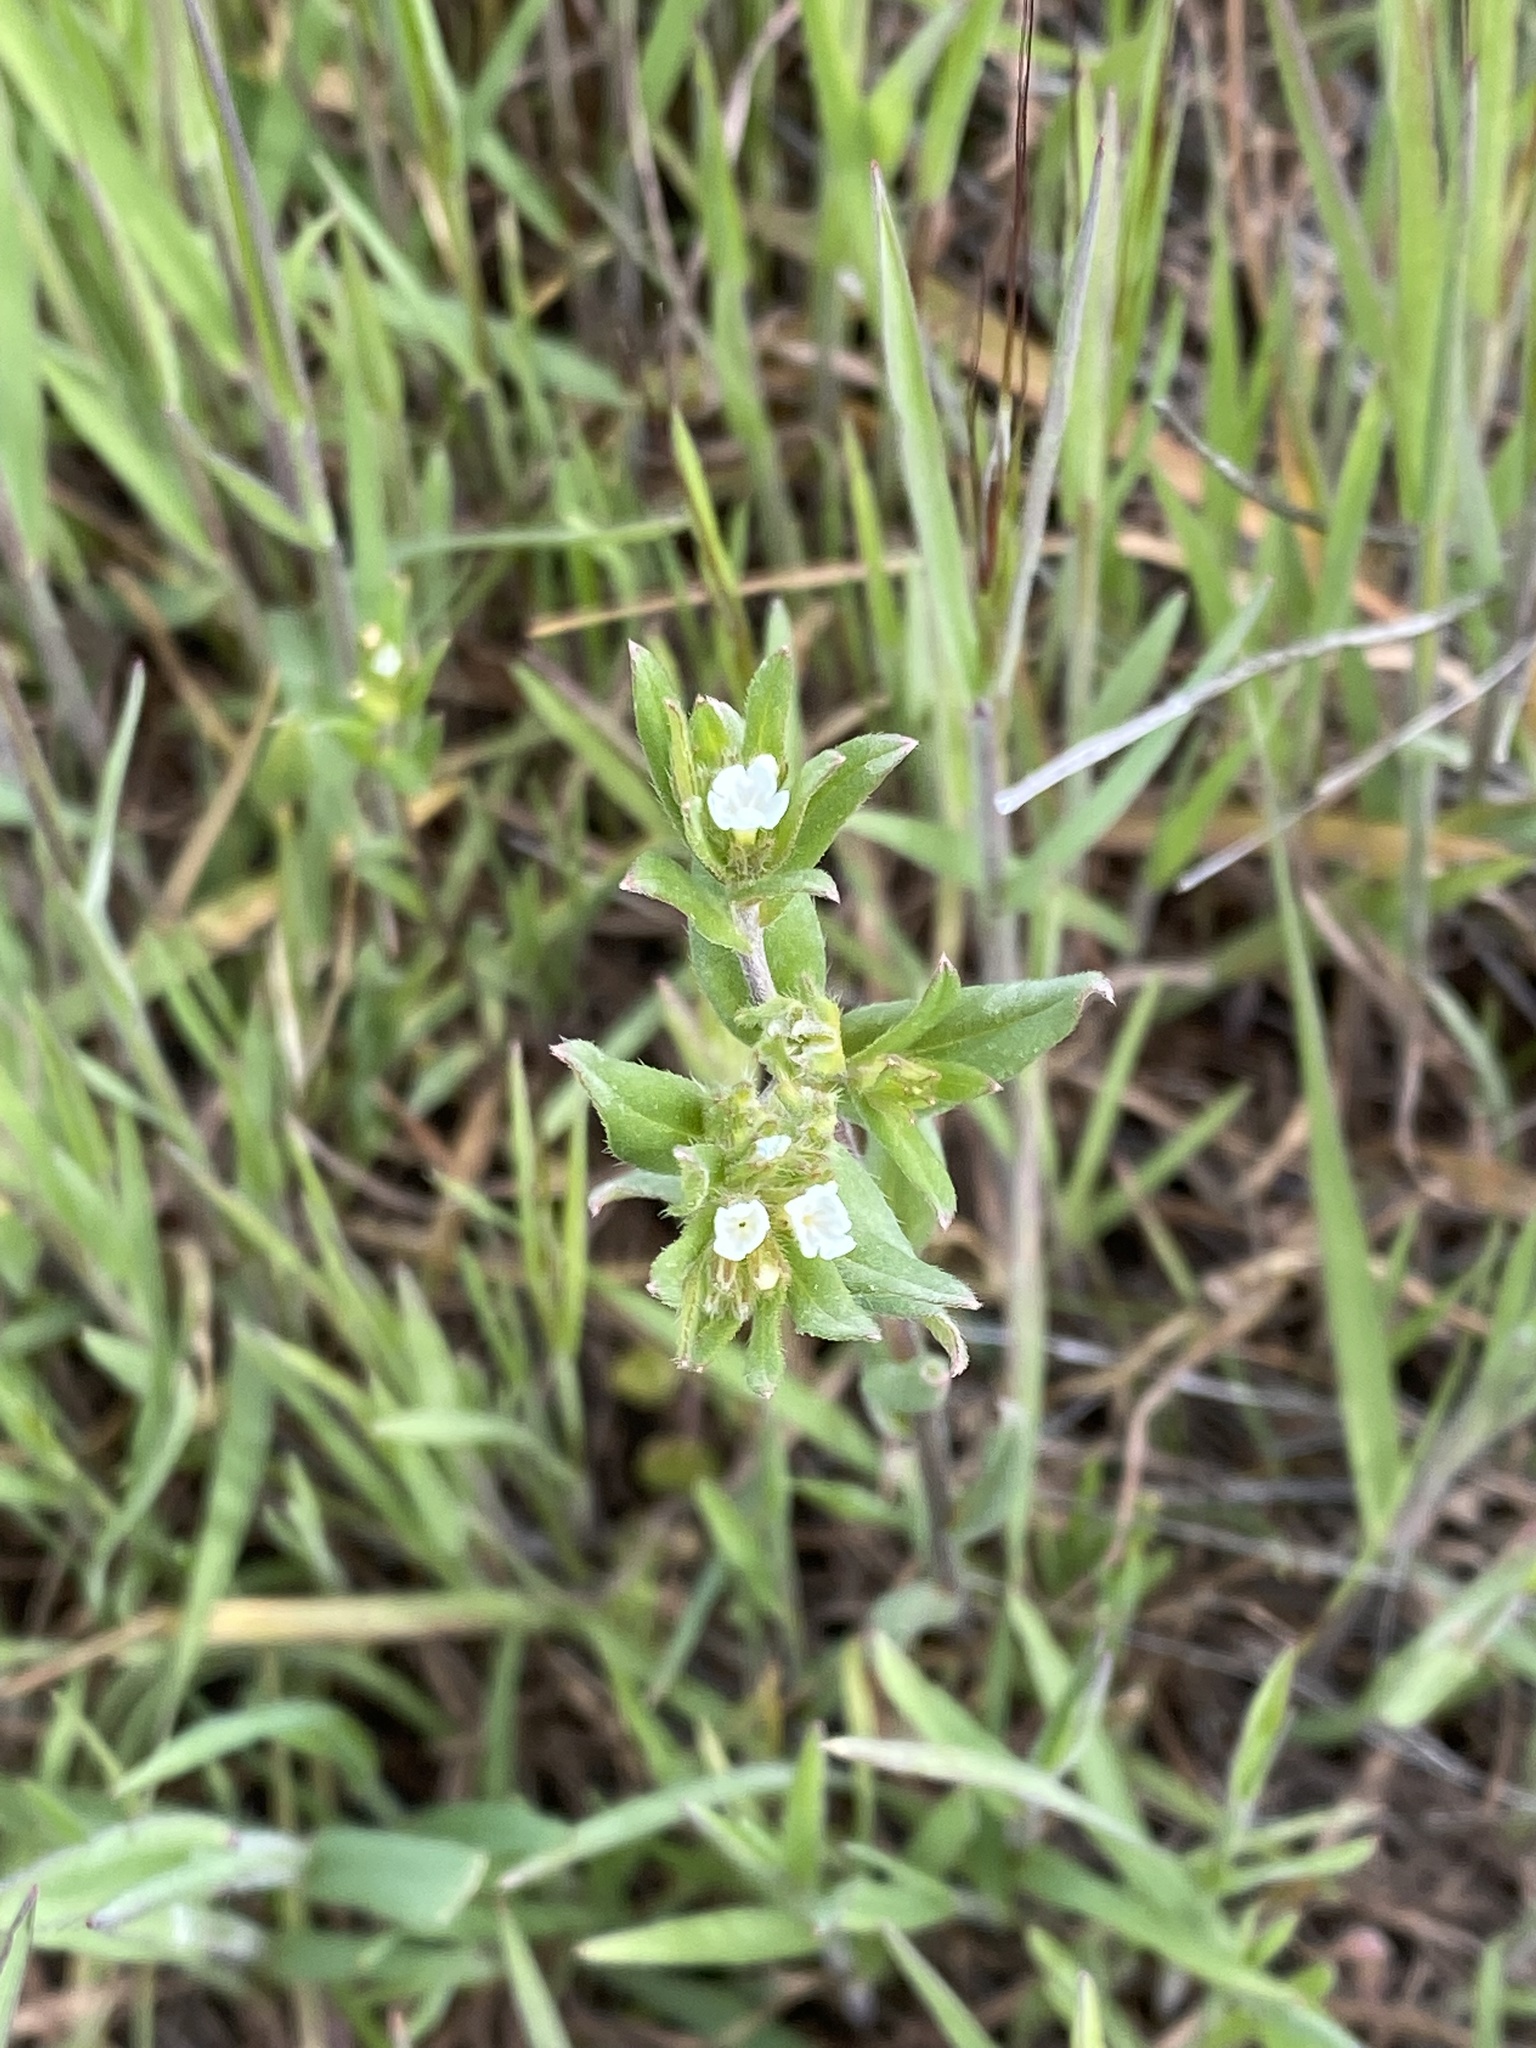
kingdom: Plantae
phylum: Tracheophyta
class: Magnoliopsida
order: Boraginales
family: Boraginaceae
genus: Buglossoides
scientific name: Buglossoides arvensis
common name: Corn gromwell
